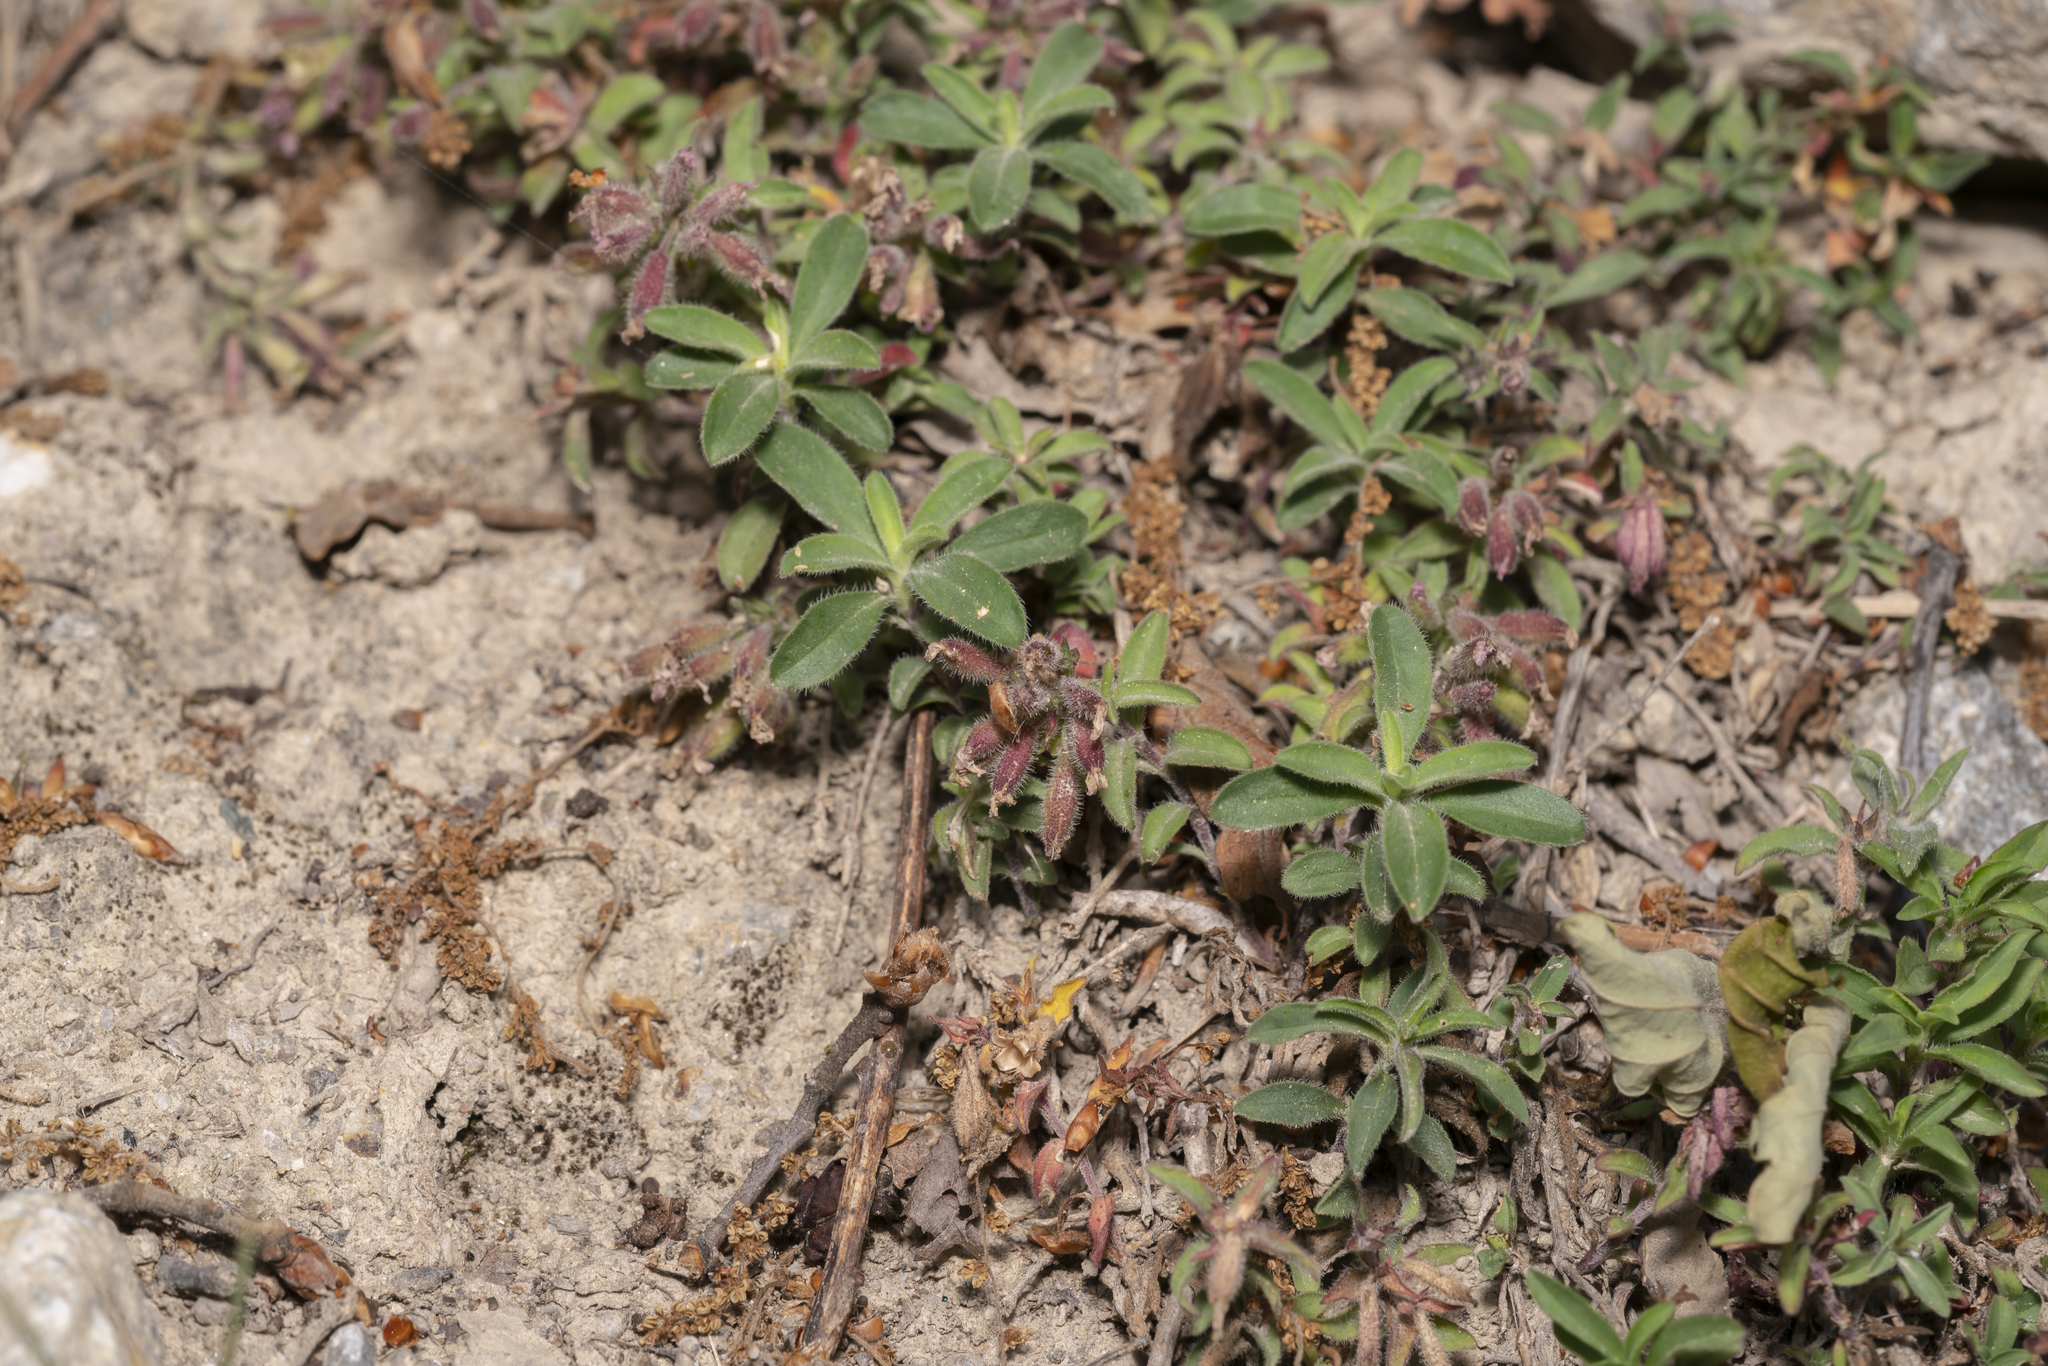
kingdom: Plantae
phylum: Tracheophyta
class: Magnoliopsida
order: Caryophyllales
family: Caryophyllaceae
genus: Saponaria
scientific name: Saponaria ocymoides
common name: Rock soapwort
